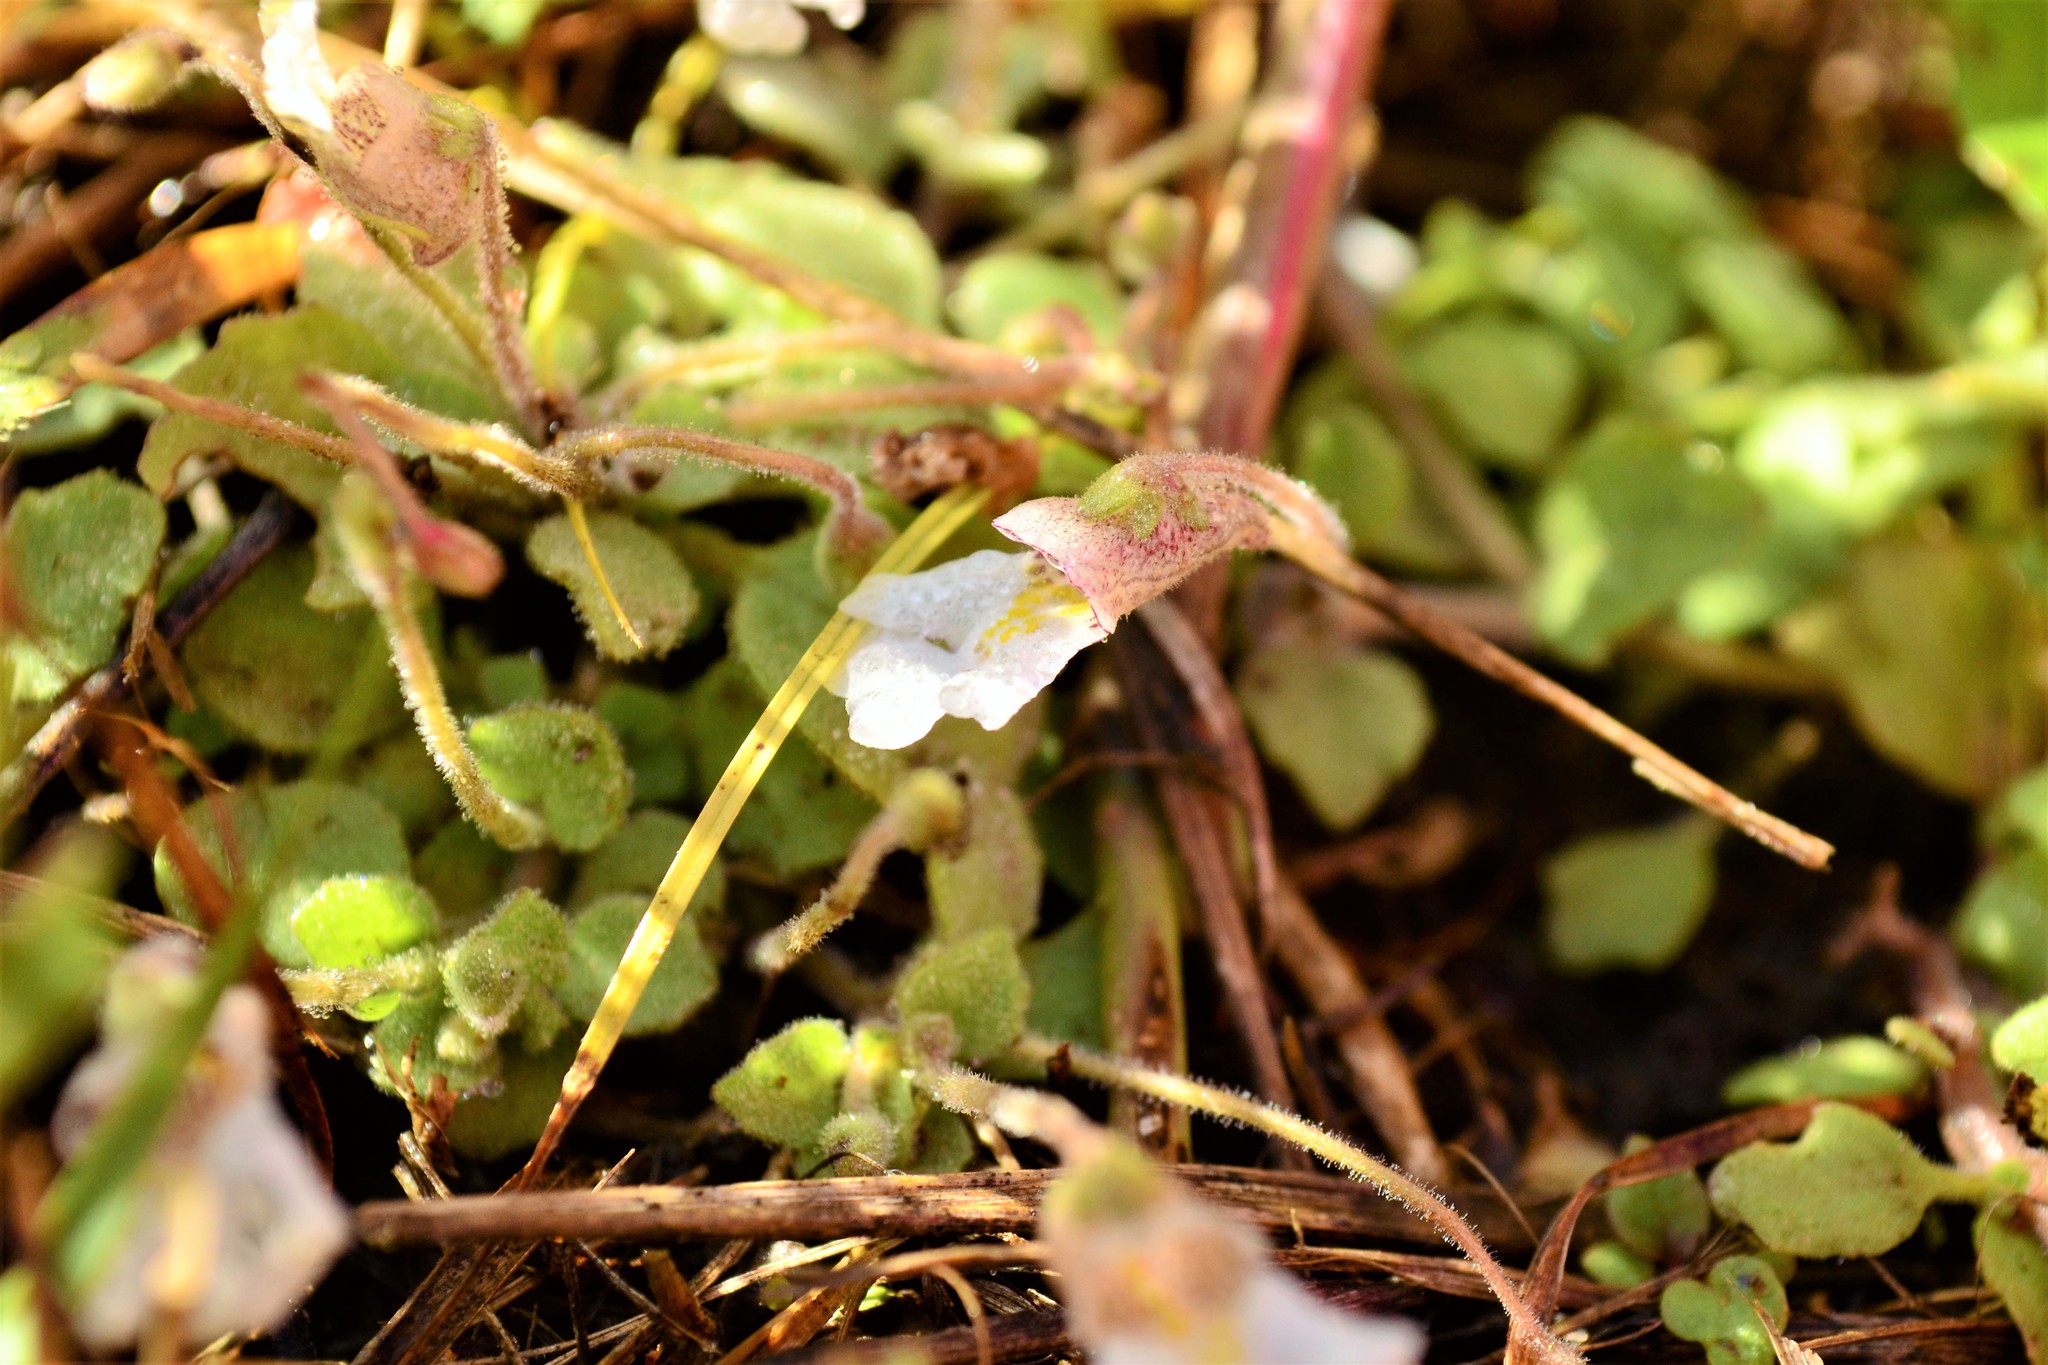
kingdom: Plantae
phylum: Tracheophyta
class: Magnoliopsida
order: Lamiales
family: Scrophulariaceae
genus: Diclis
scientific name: Diclis petiolaris
